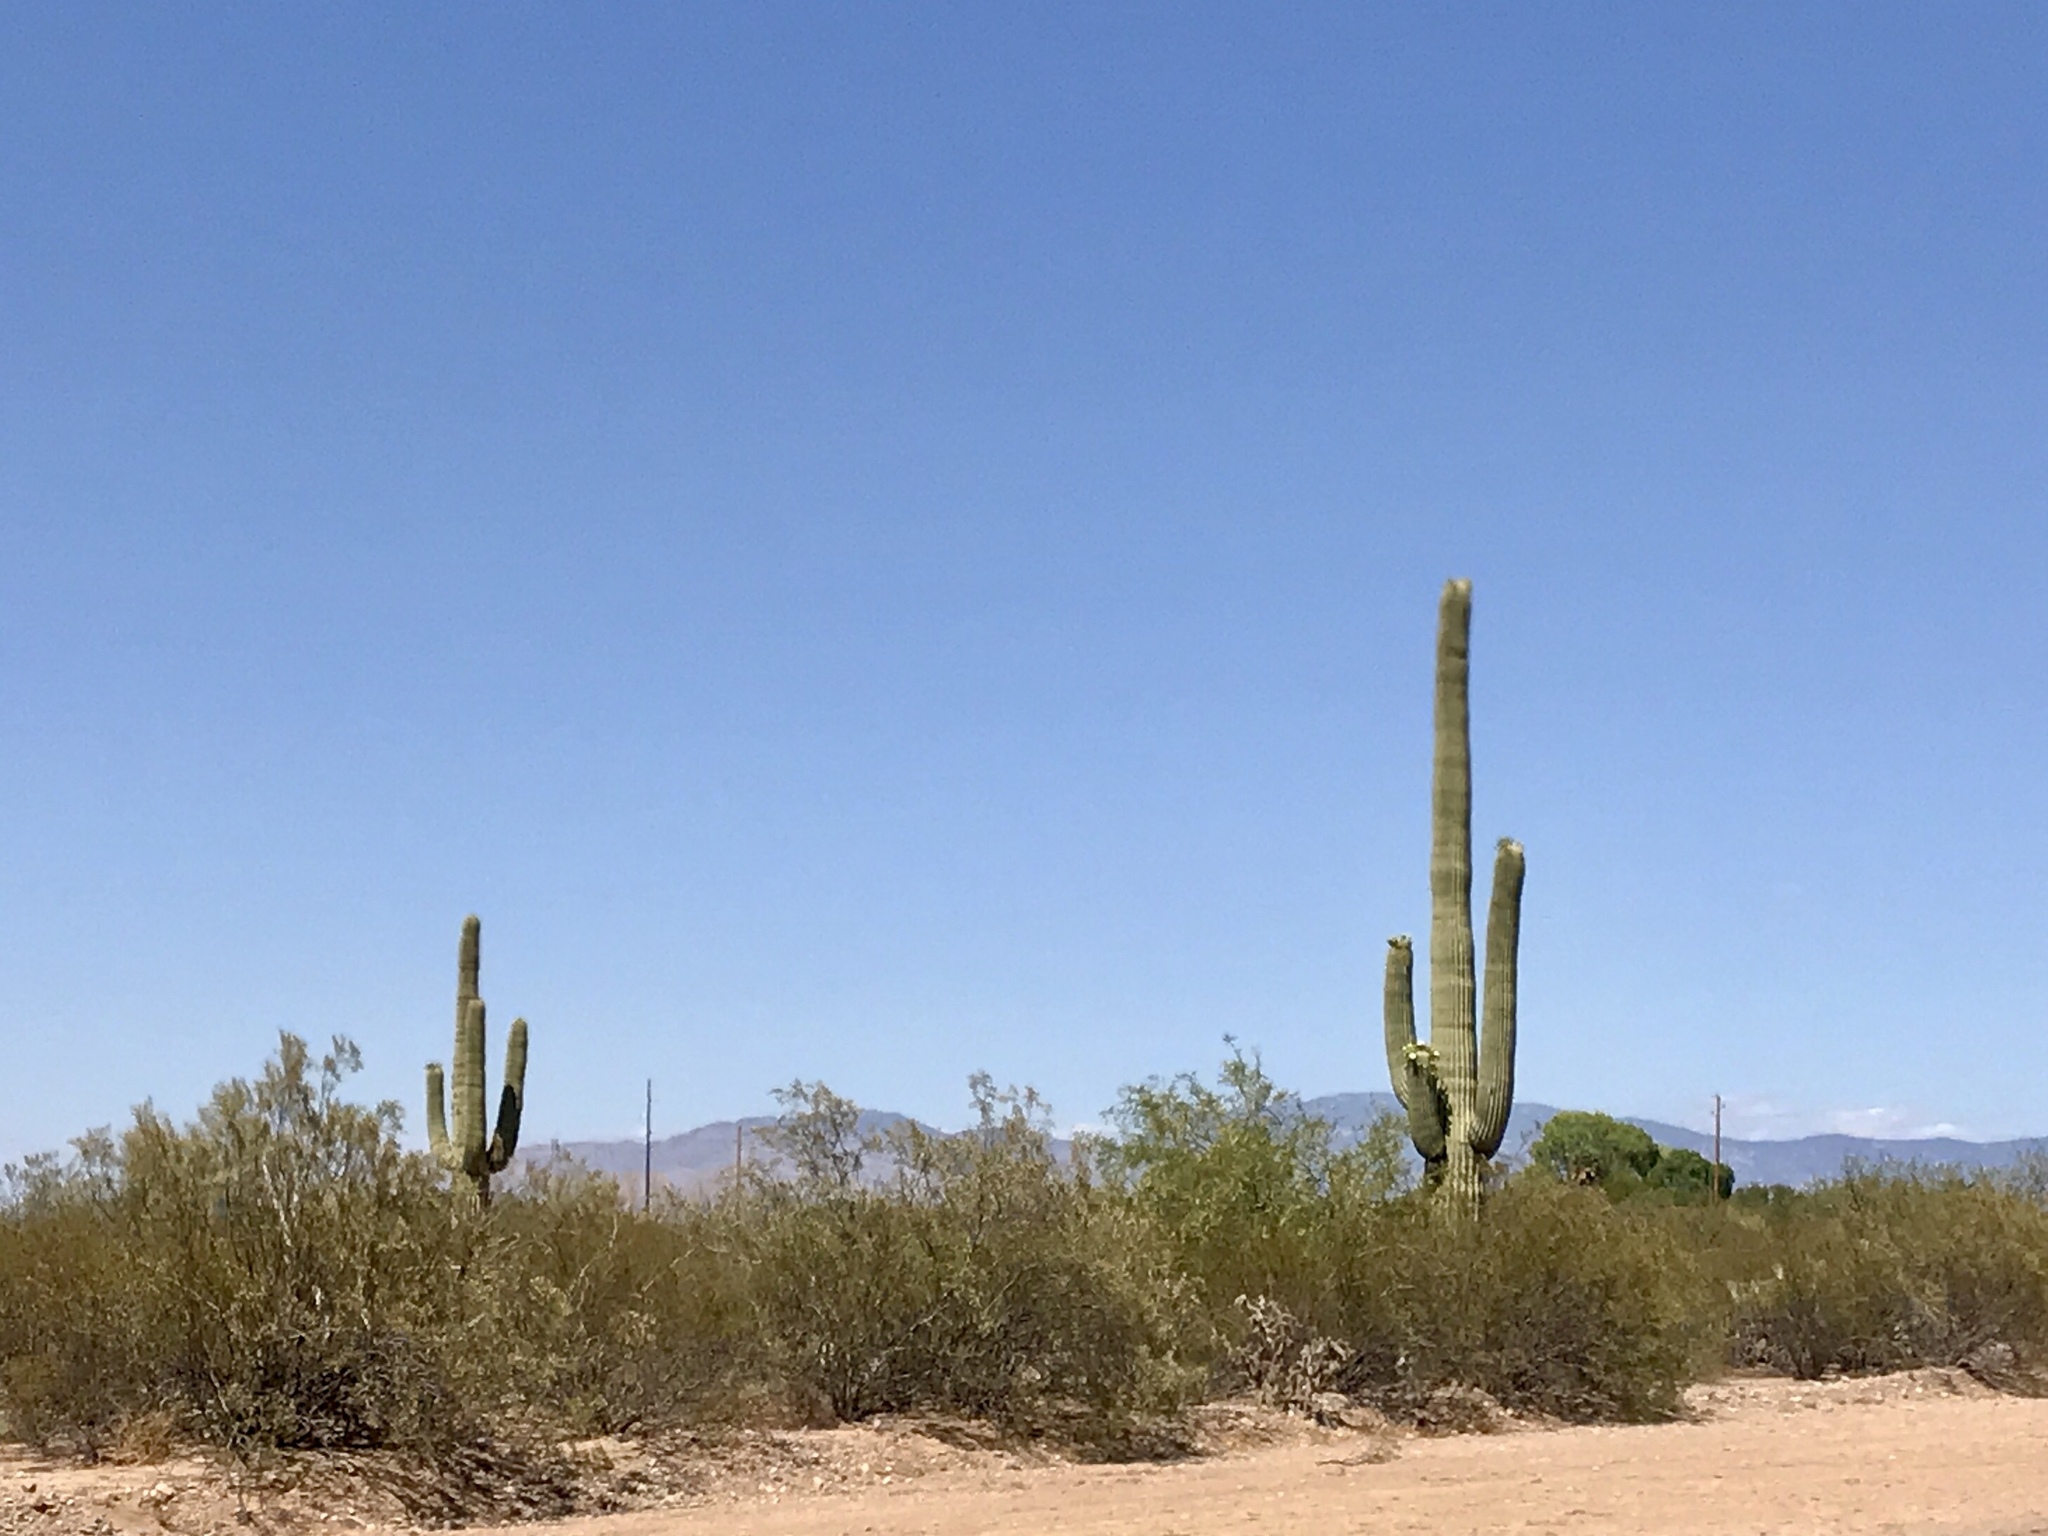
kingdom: Plantae
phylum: Tracheophyta
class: Magnoliopsida
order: Caryophyllales
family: Cactaceae
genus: Carnegiea
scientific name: Carnegiea gigantea
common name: Saguaro
